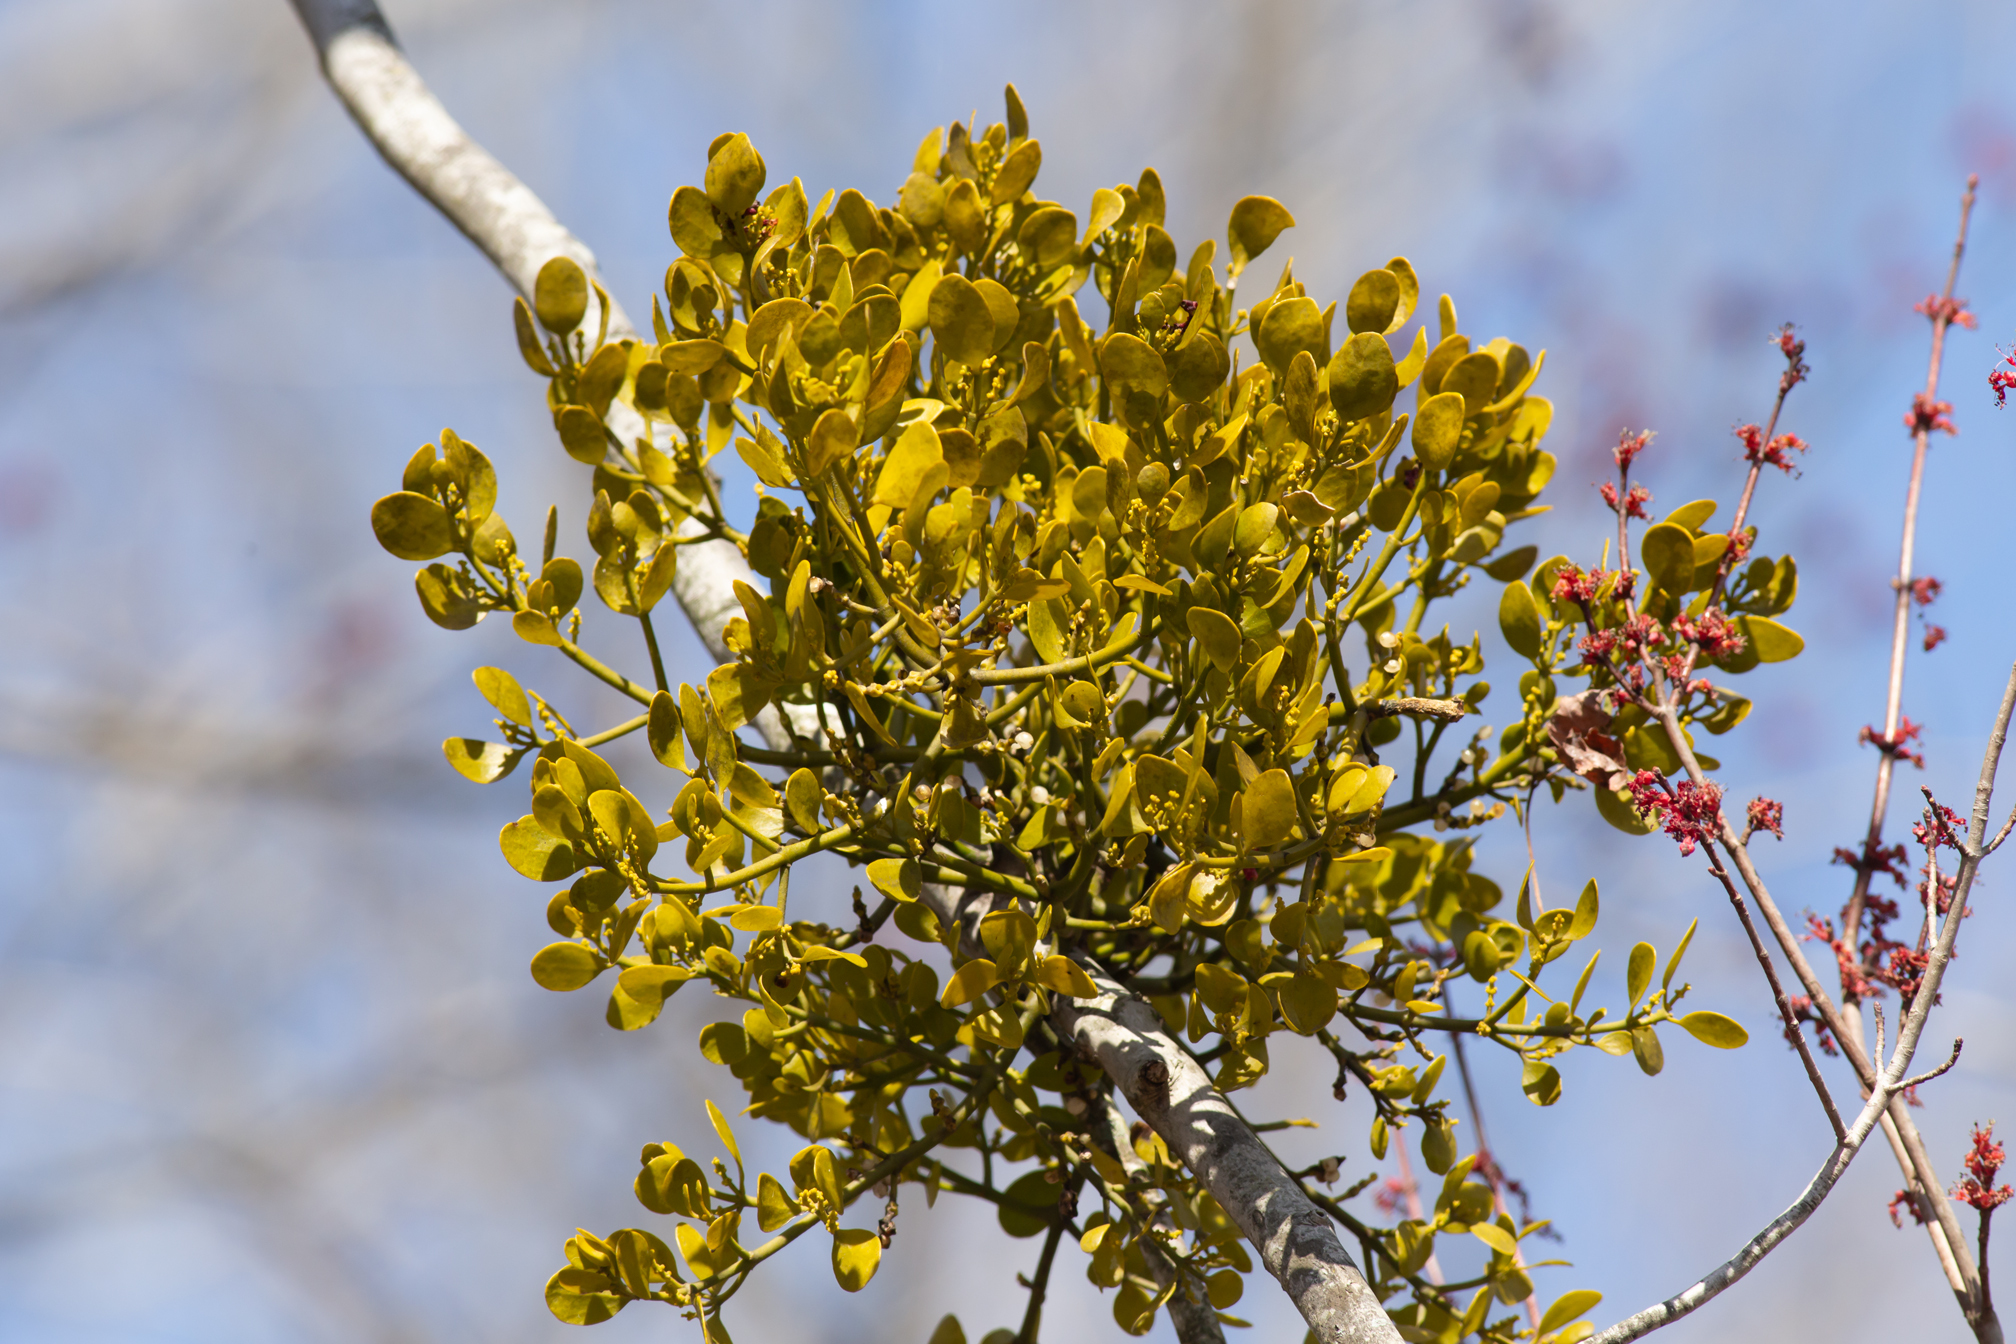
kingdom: Plantae
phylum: Tracheophyta
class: Magnoliopsida
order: Santalales
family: Viscaceae
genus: Phoradendron
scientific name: Phoradendron leucarpum
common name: Pacific mistletoe
